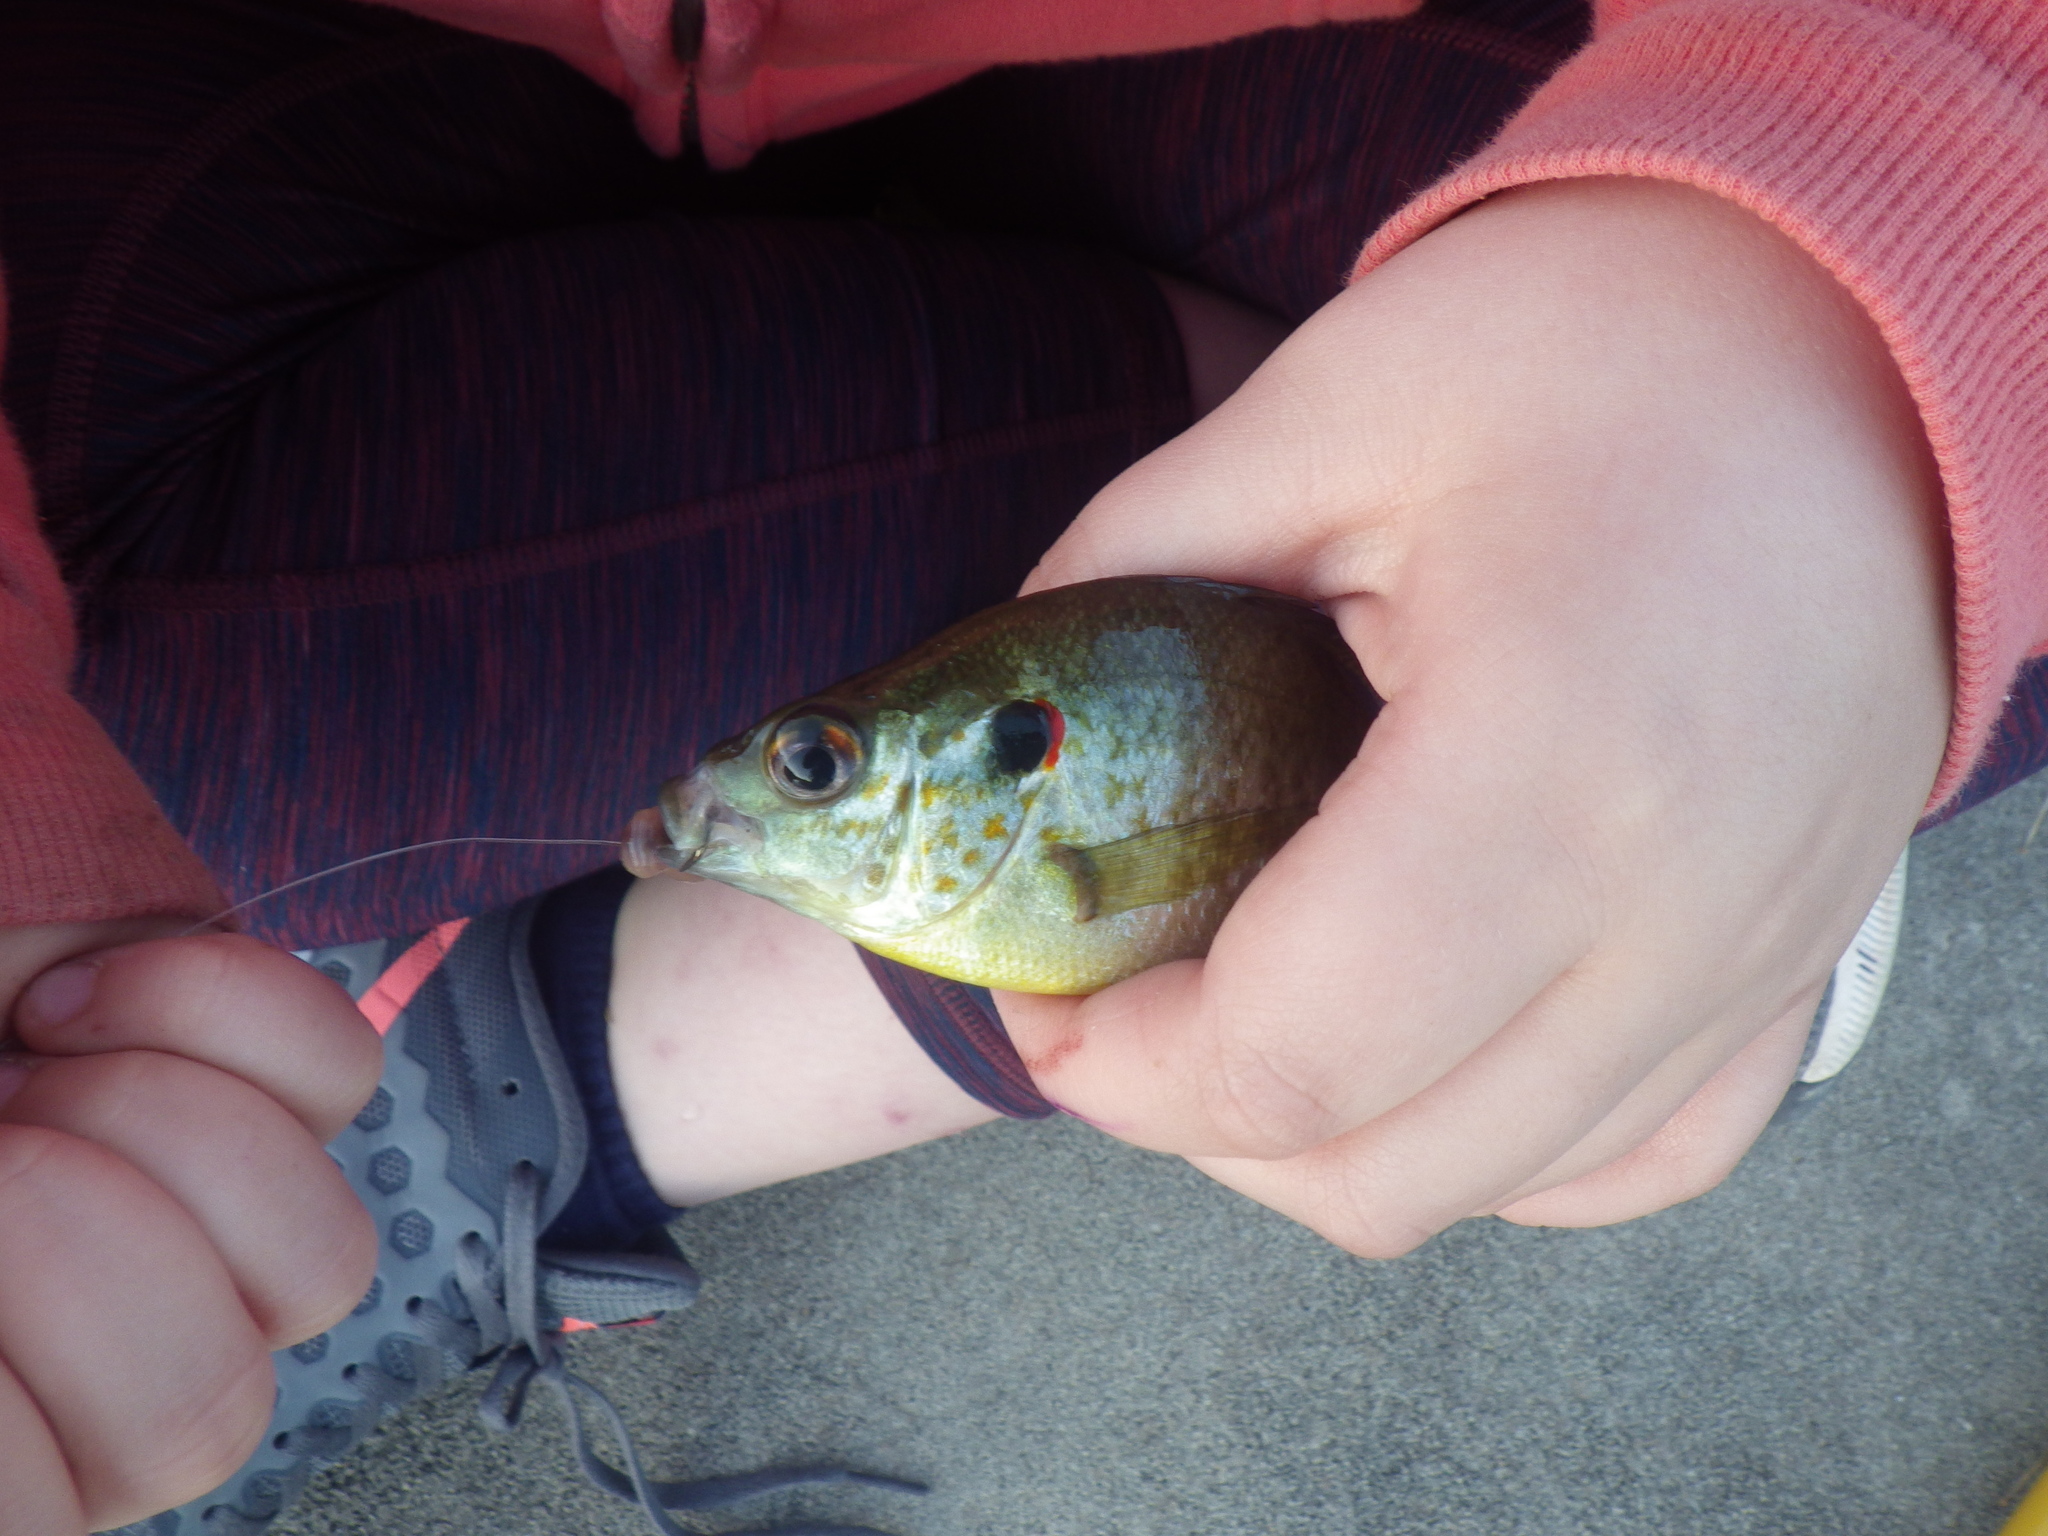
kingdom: Animalia
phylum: Chordata
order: Perciformes
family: Centrarchidae
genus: Lepomis
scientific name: Lepomis microlophus
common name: Redear sunfish
